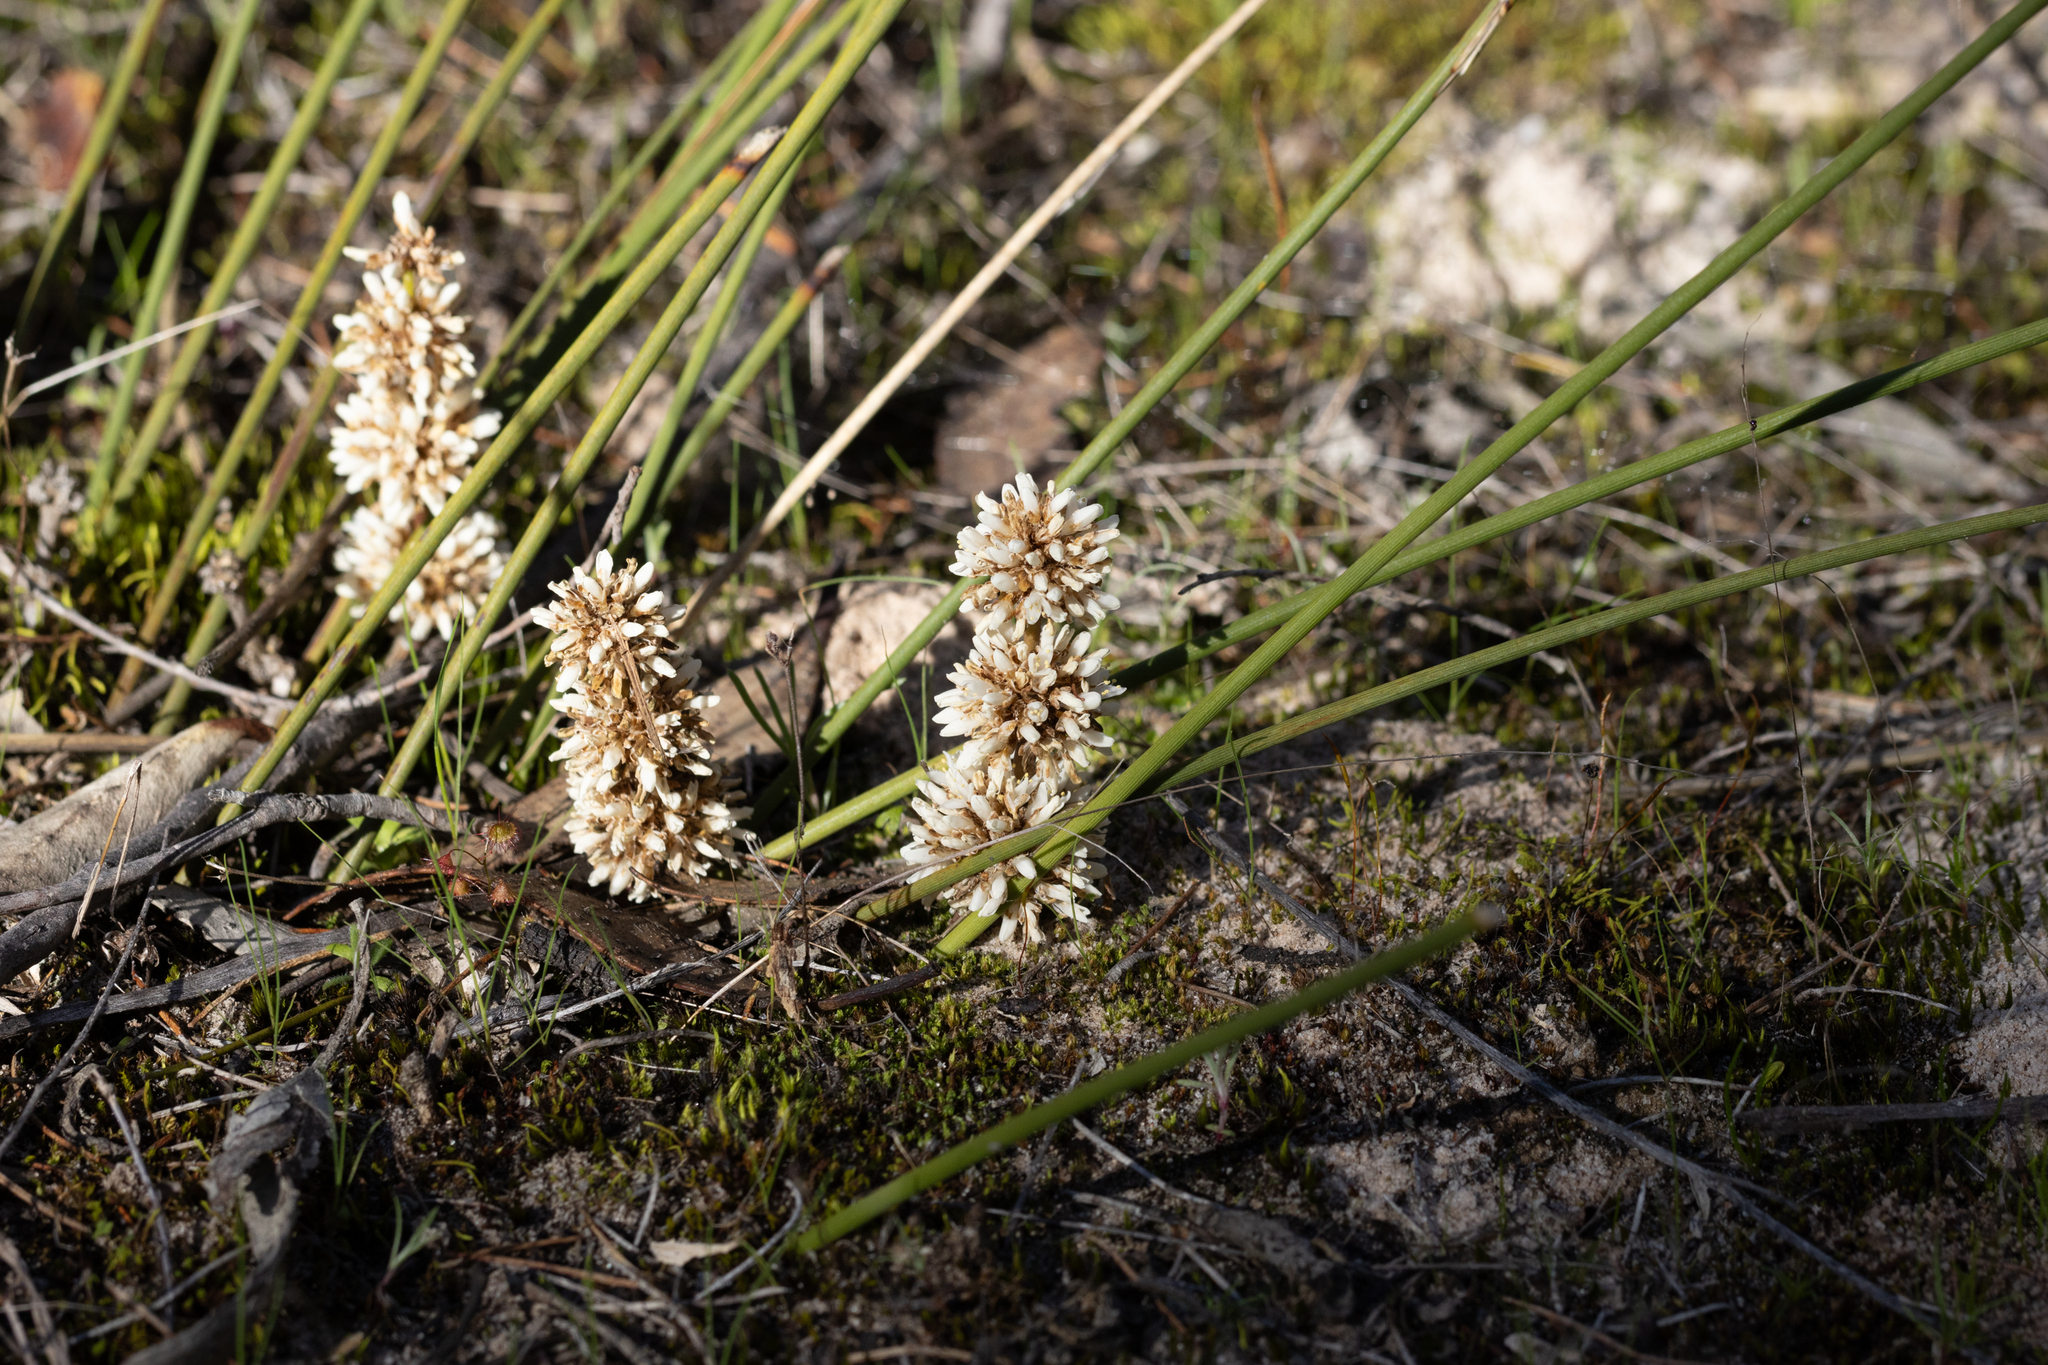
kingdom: Plantae
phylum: Tracheophyta
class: Liliopsida
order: Asparagales
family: Asparagaceae
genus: Lomandra
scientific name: Lomandra juncea
